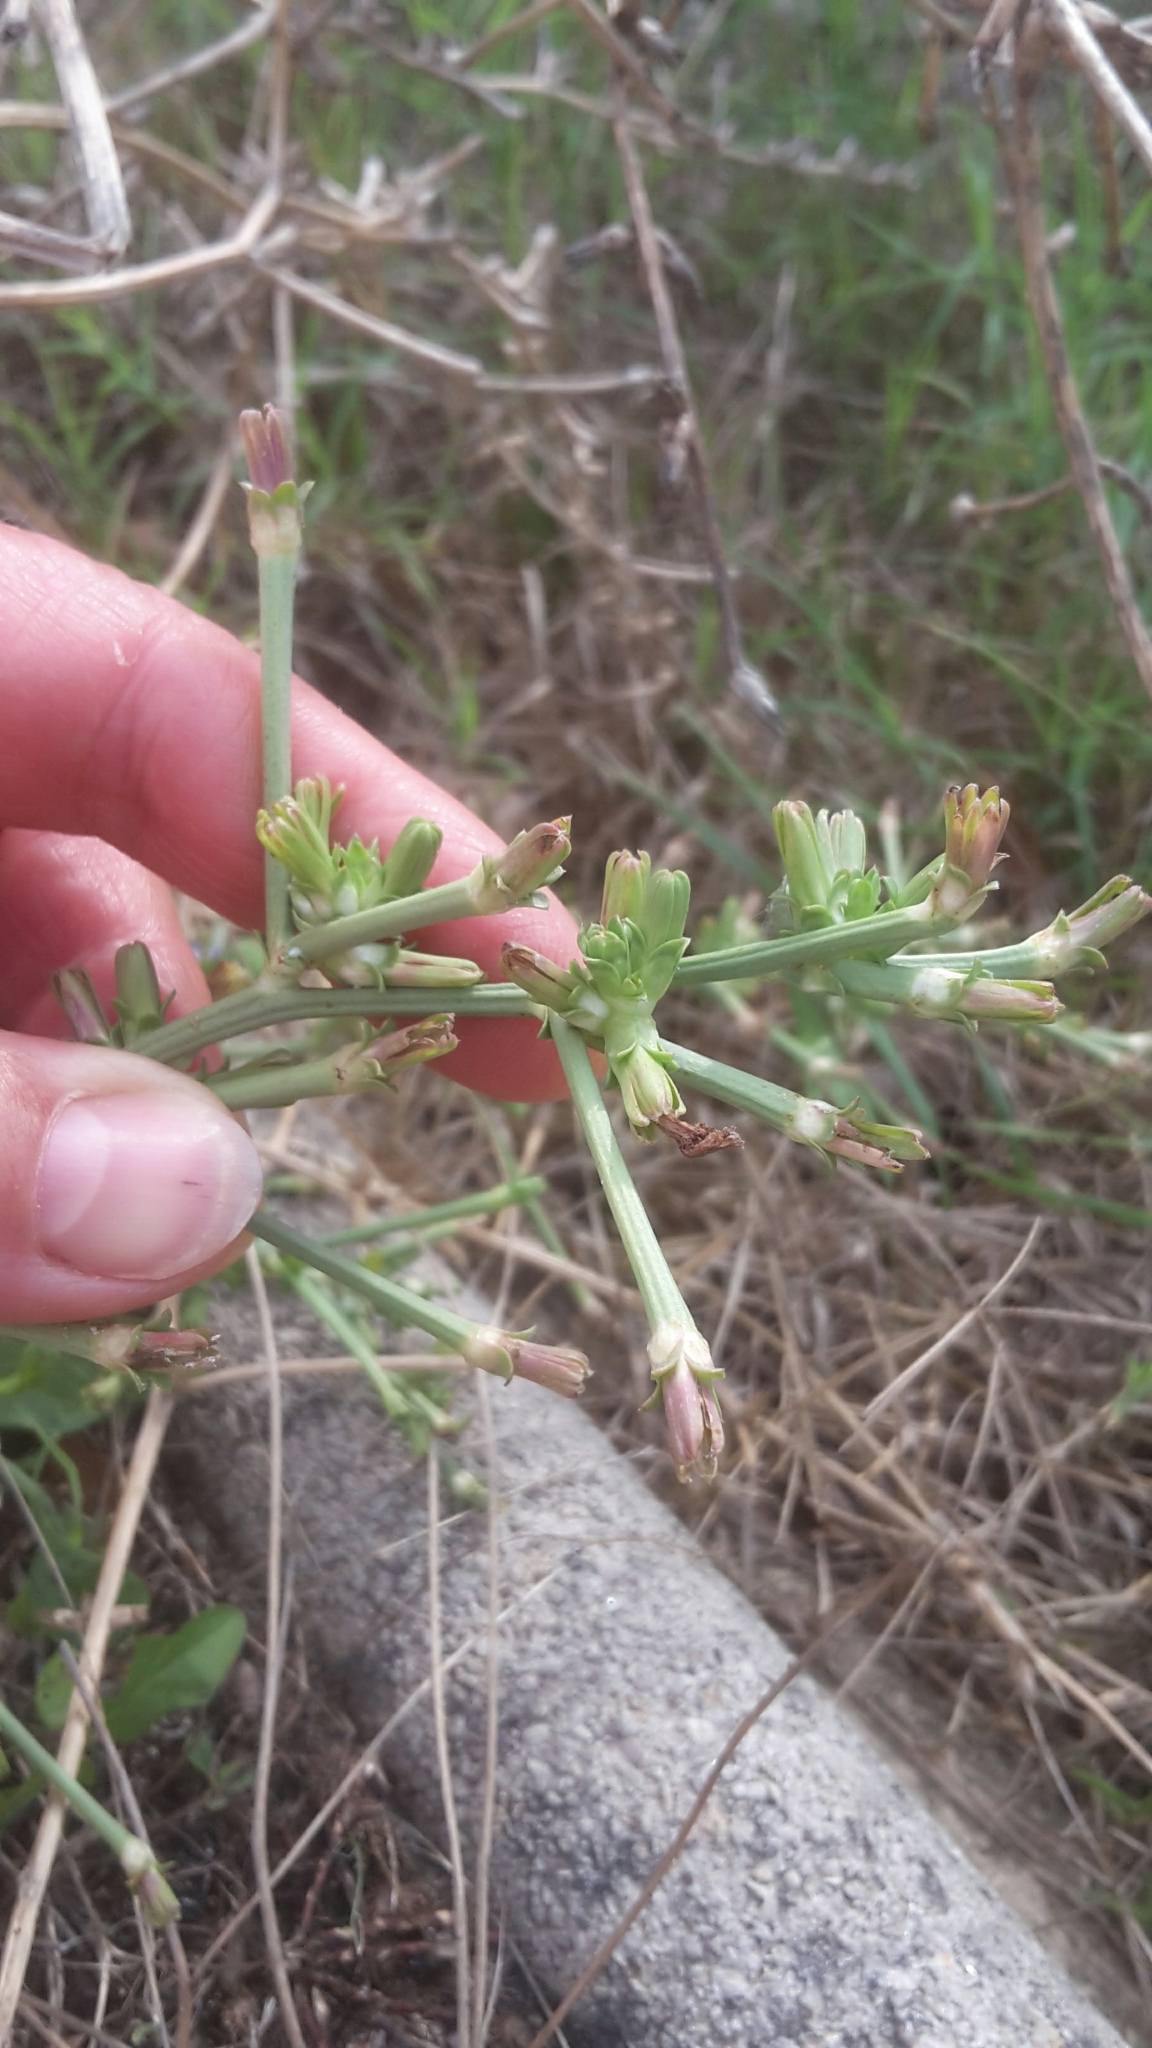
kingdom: Plantae
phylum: Tracheophyta
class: Magnoliopsida
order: Asterales
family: Asteraceae
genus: Cichorium
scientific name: Cichorium intybus
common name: Chicory
